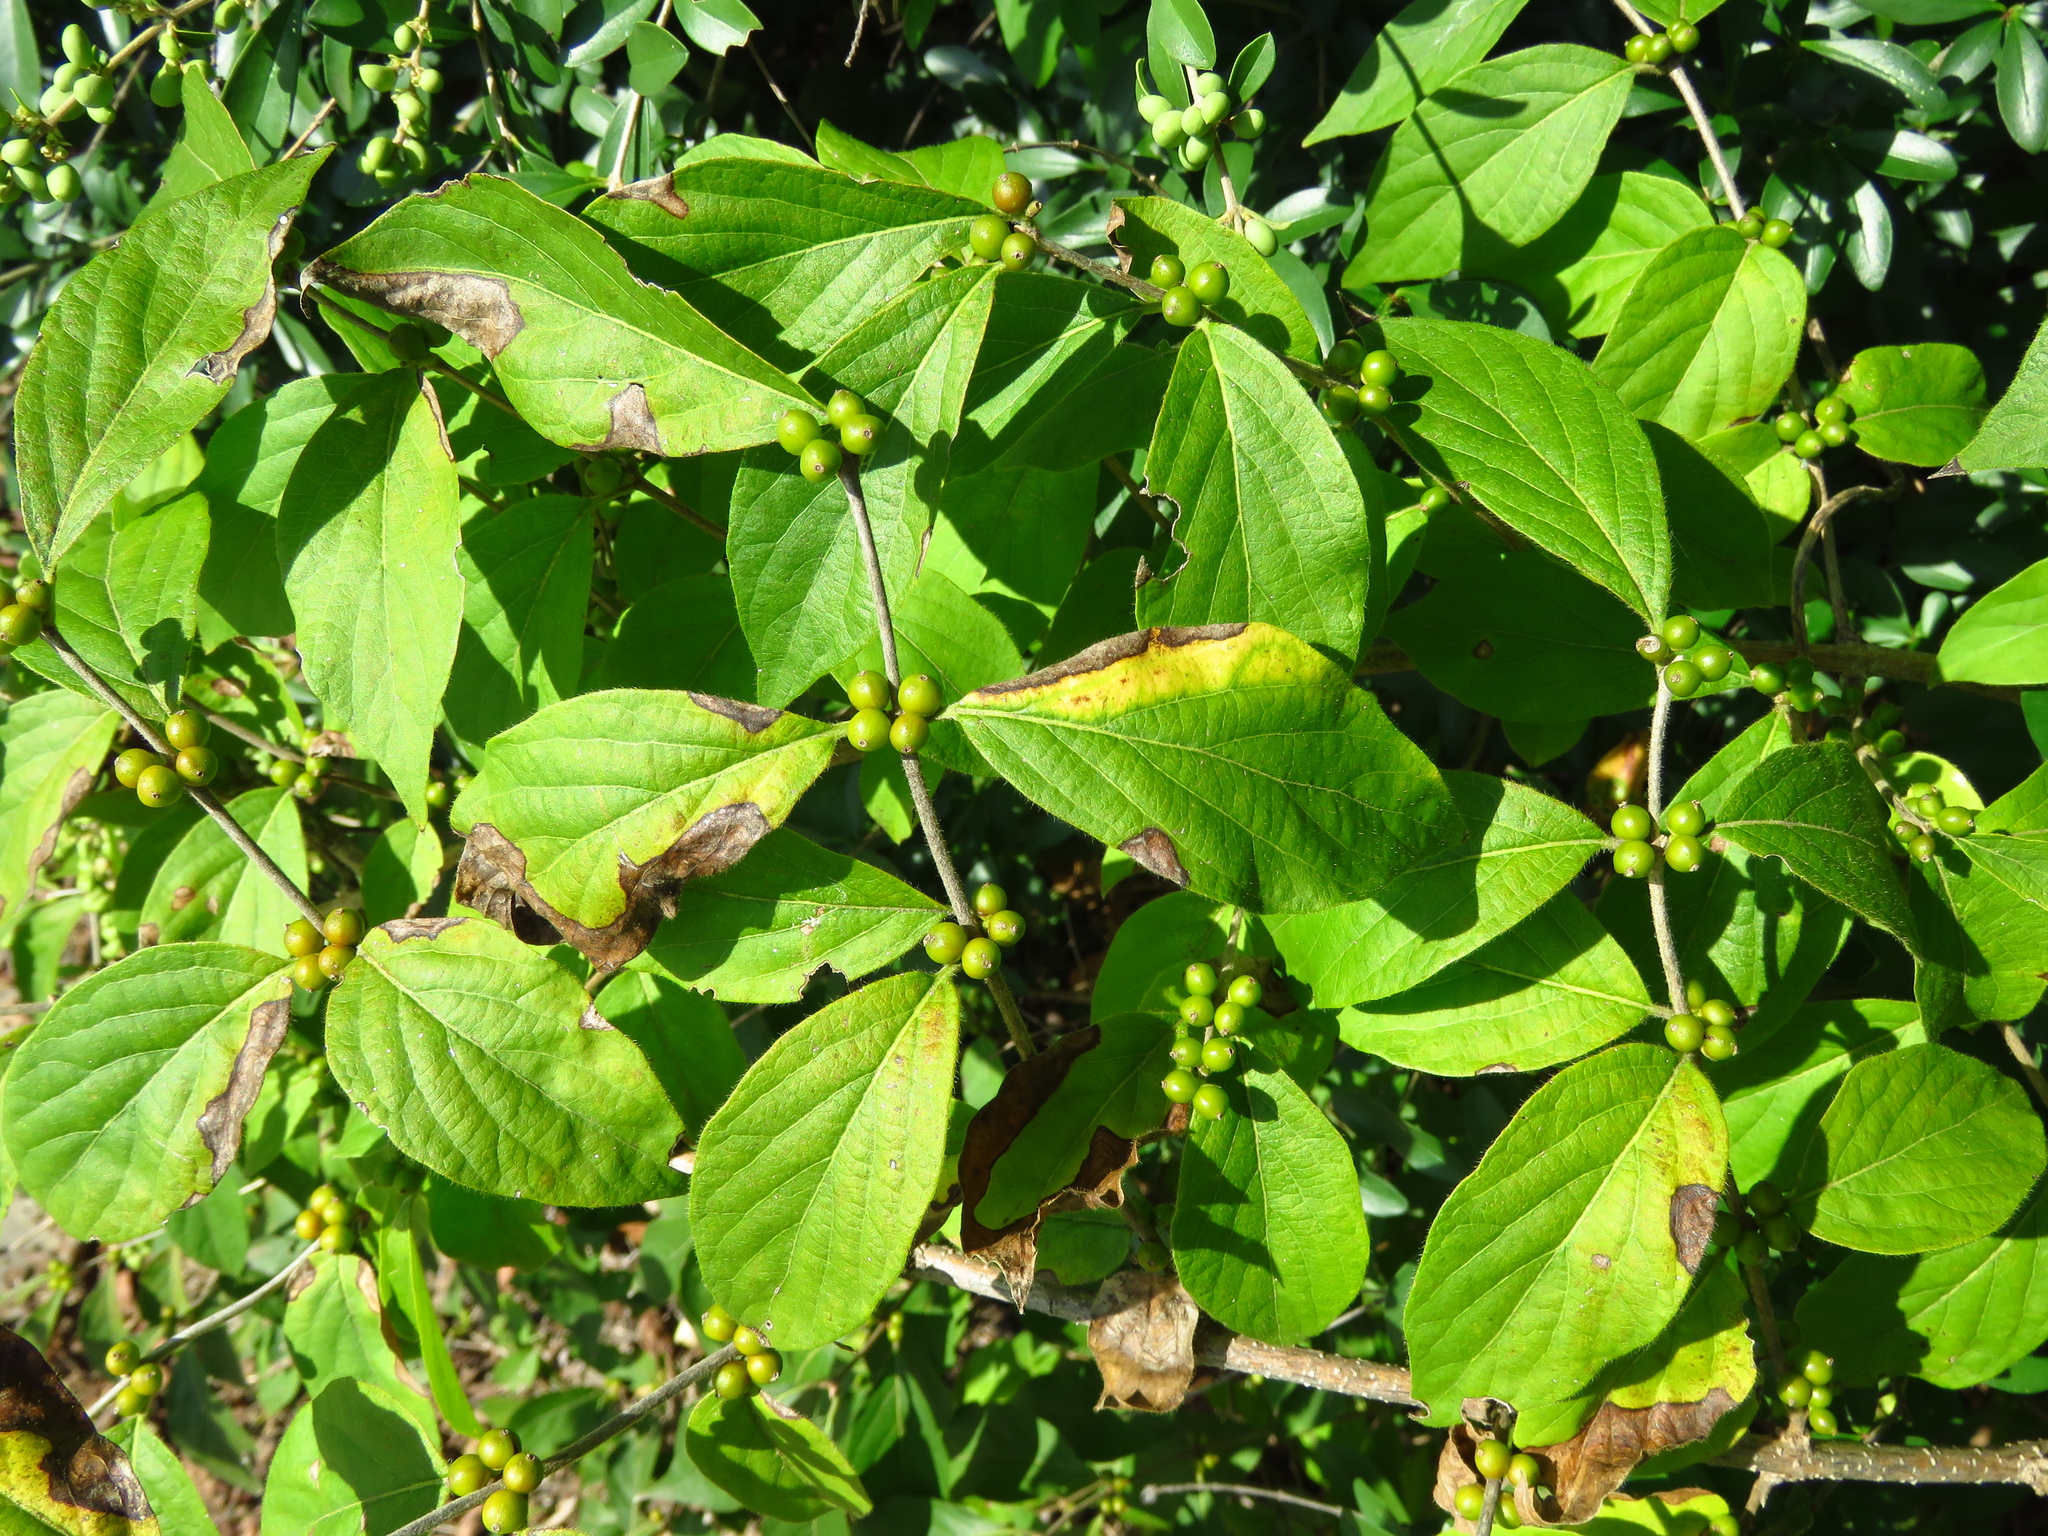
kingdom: Plantae
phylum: Tracheophyta
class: Magnoliopsida
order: Dipsacales
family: Caprifoliaceae
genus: Lonicera
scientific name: Lonicera maackii
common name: Amur honeysuckle
